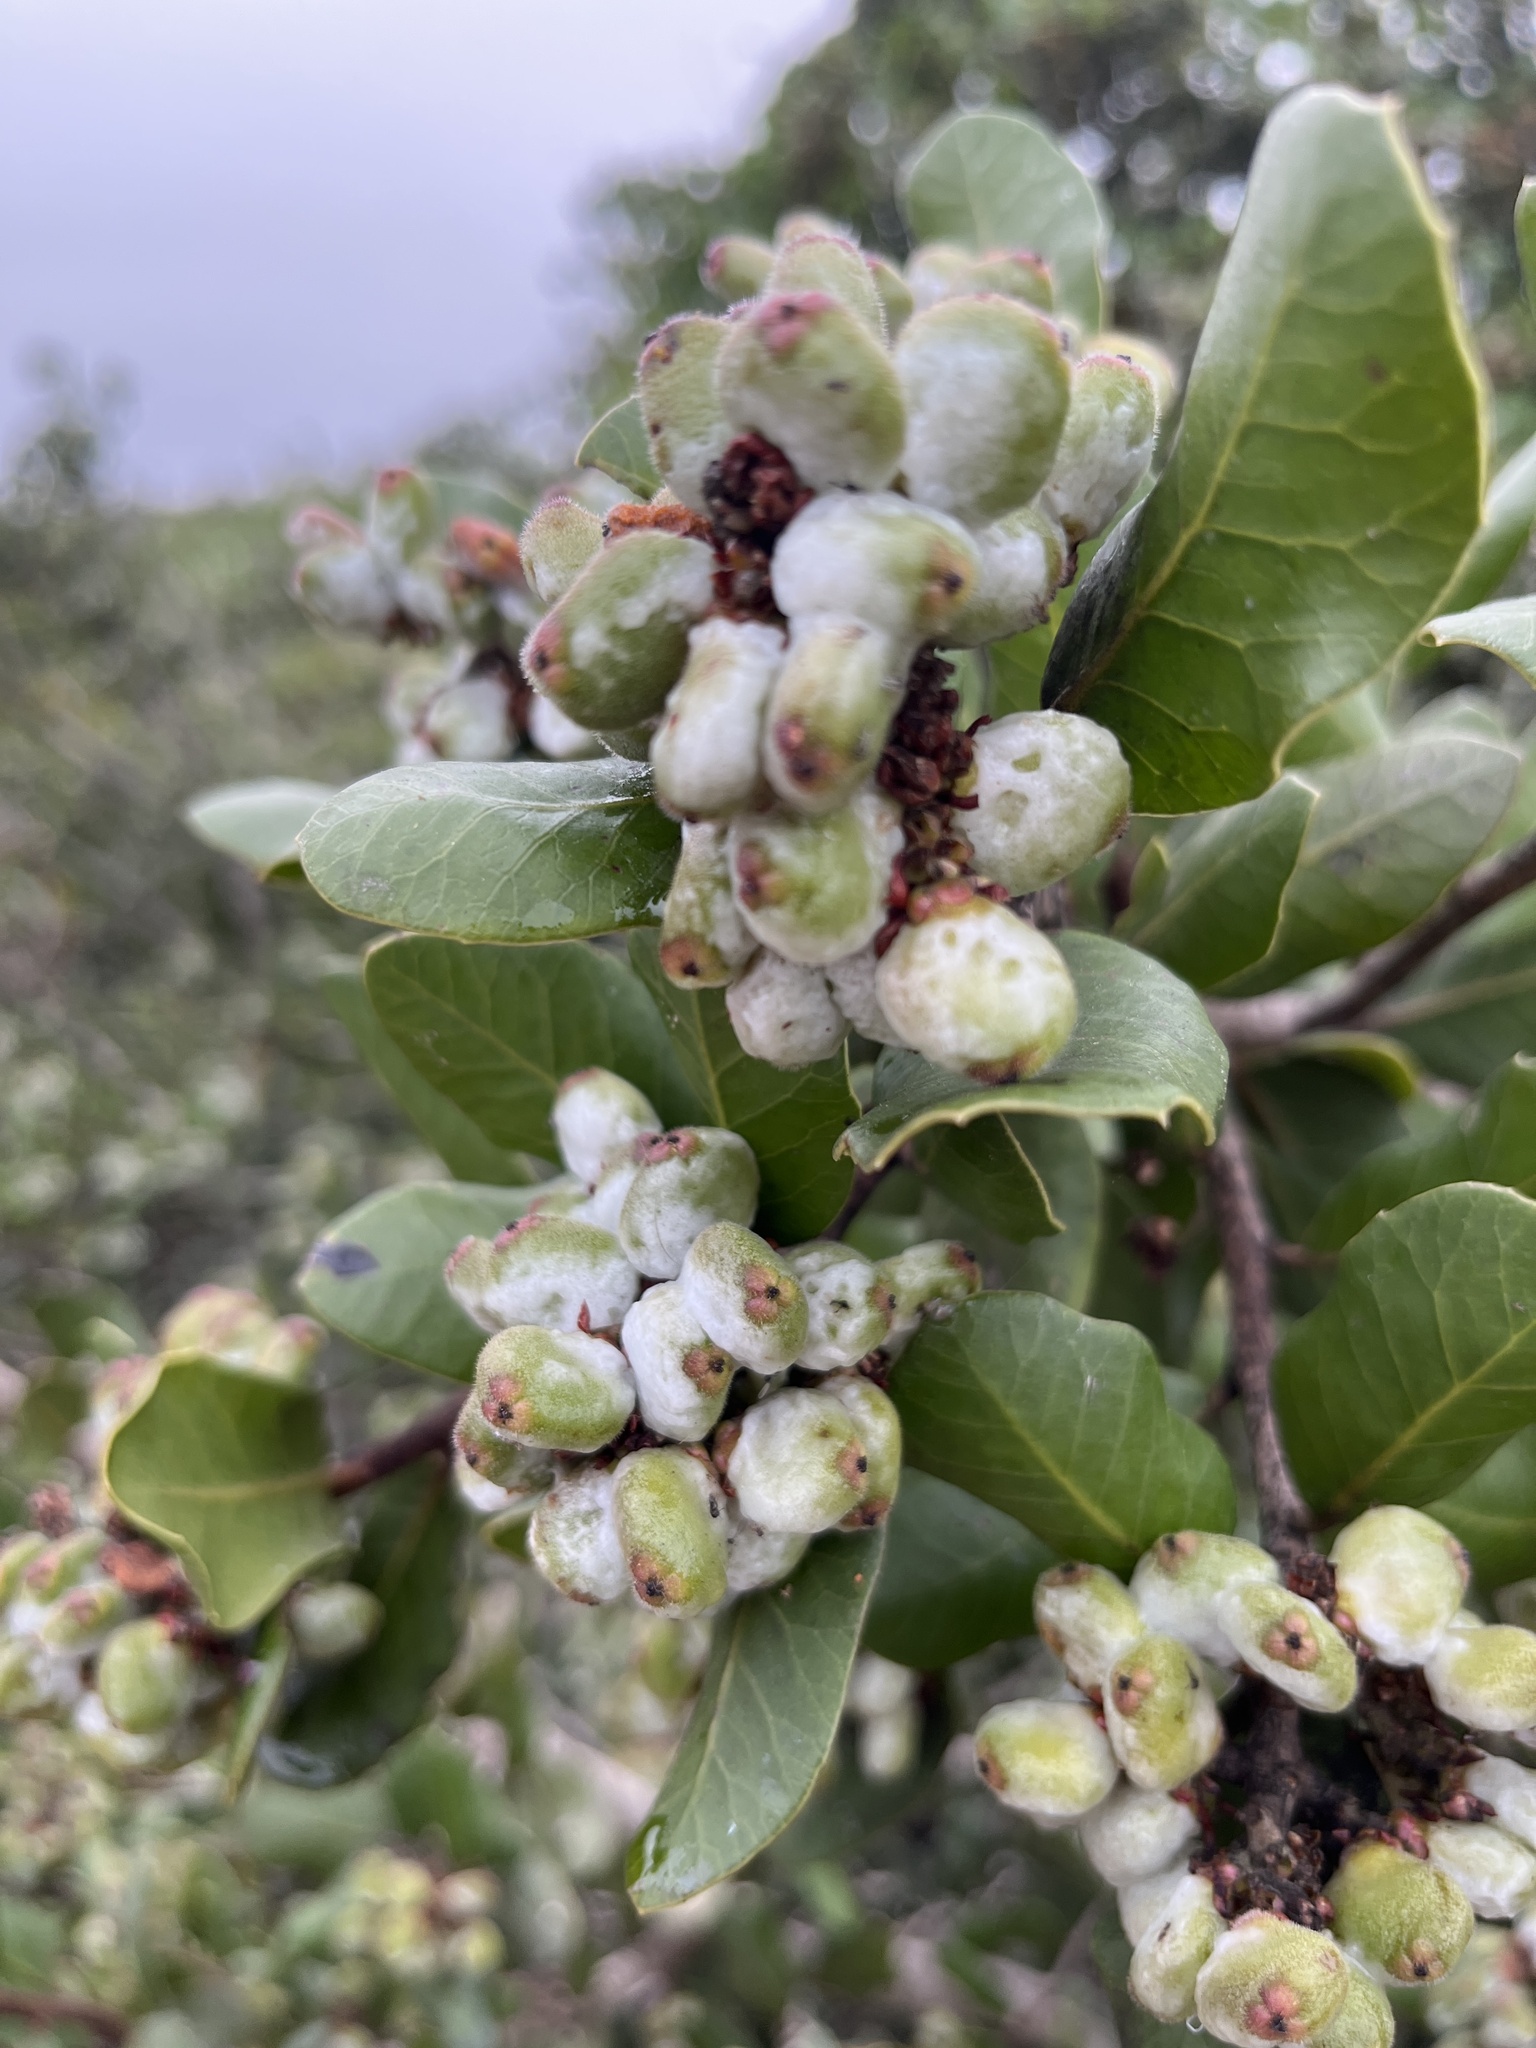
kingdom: Plantae
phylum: Tracheophyta
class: Magnoliopsida
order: Sapindales
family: Anacardiaceae
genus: Rhus
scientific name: Rhus integrifolia
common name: Lemonade sumac
